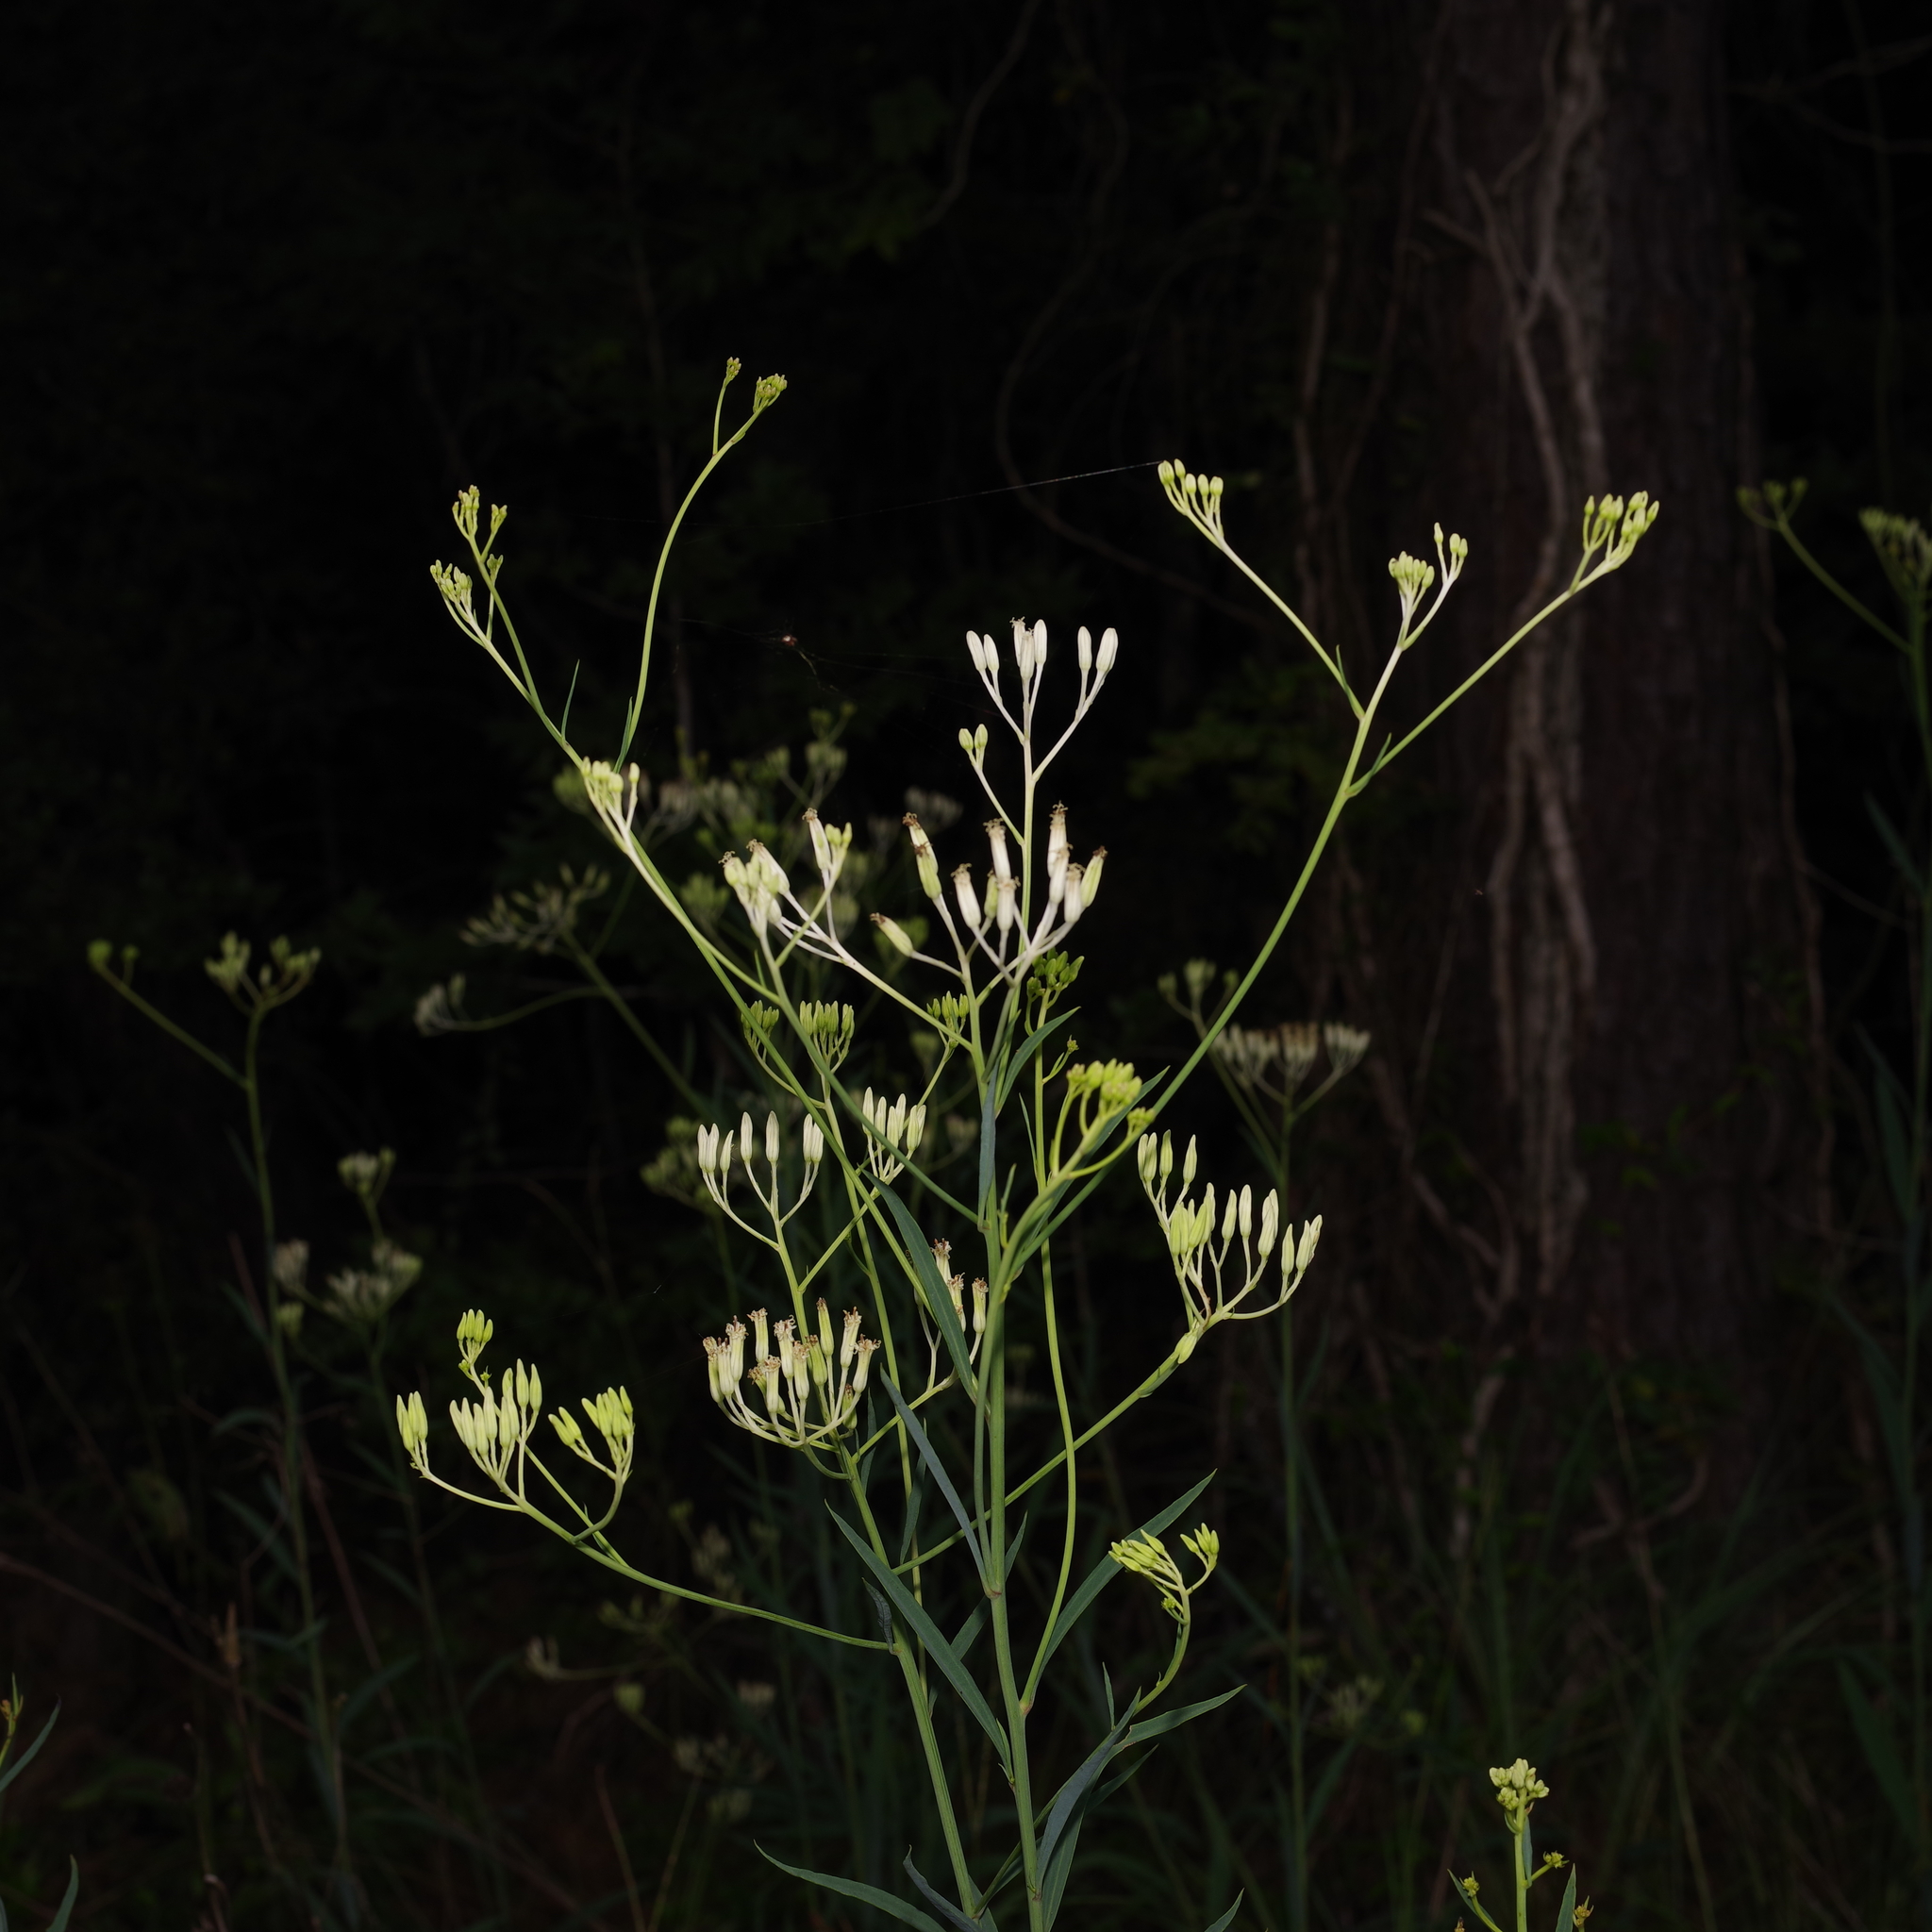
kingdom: Plantae
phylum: Tracheophyta
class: Magnoliopsida
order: Asterales
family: Asteraceae
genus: Arnoglossum
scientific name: Arnoglossum ovatum
